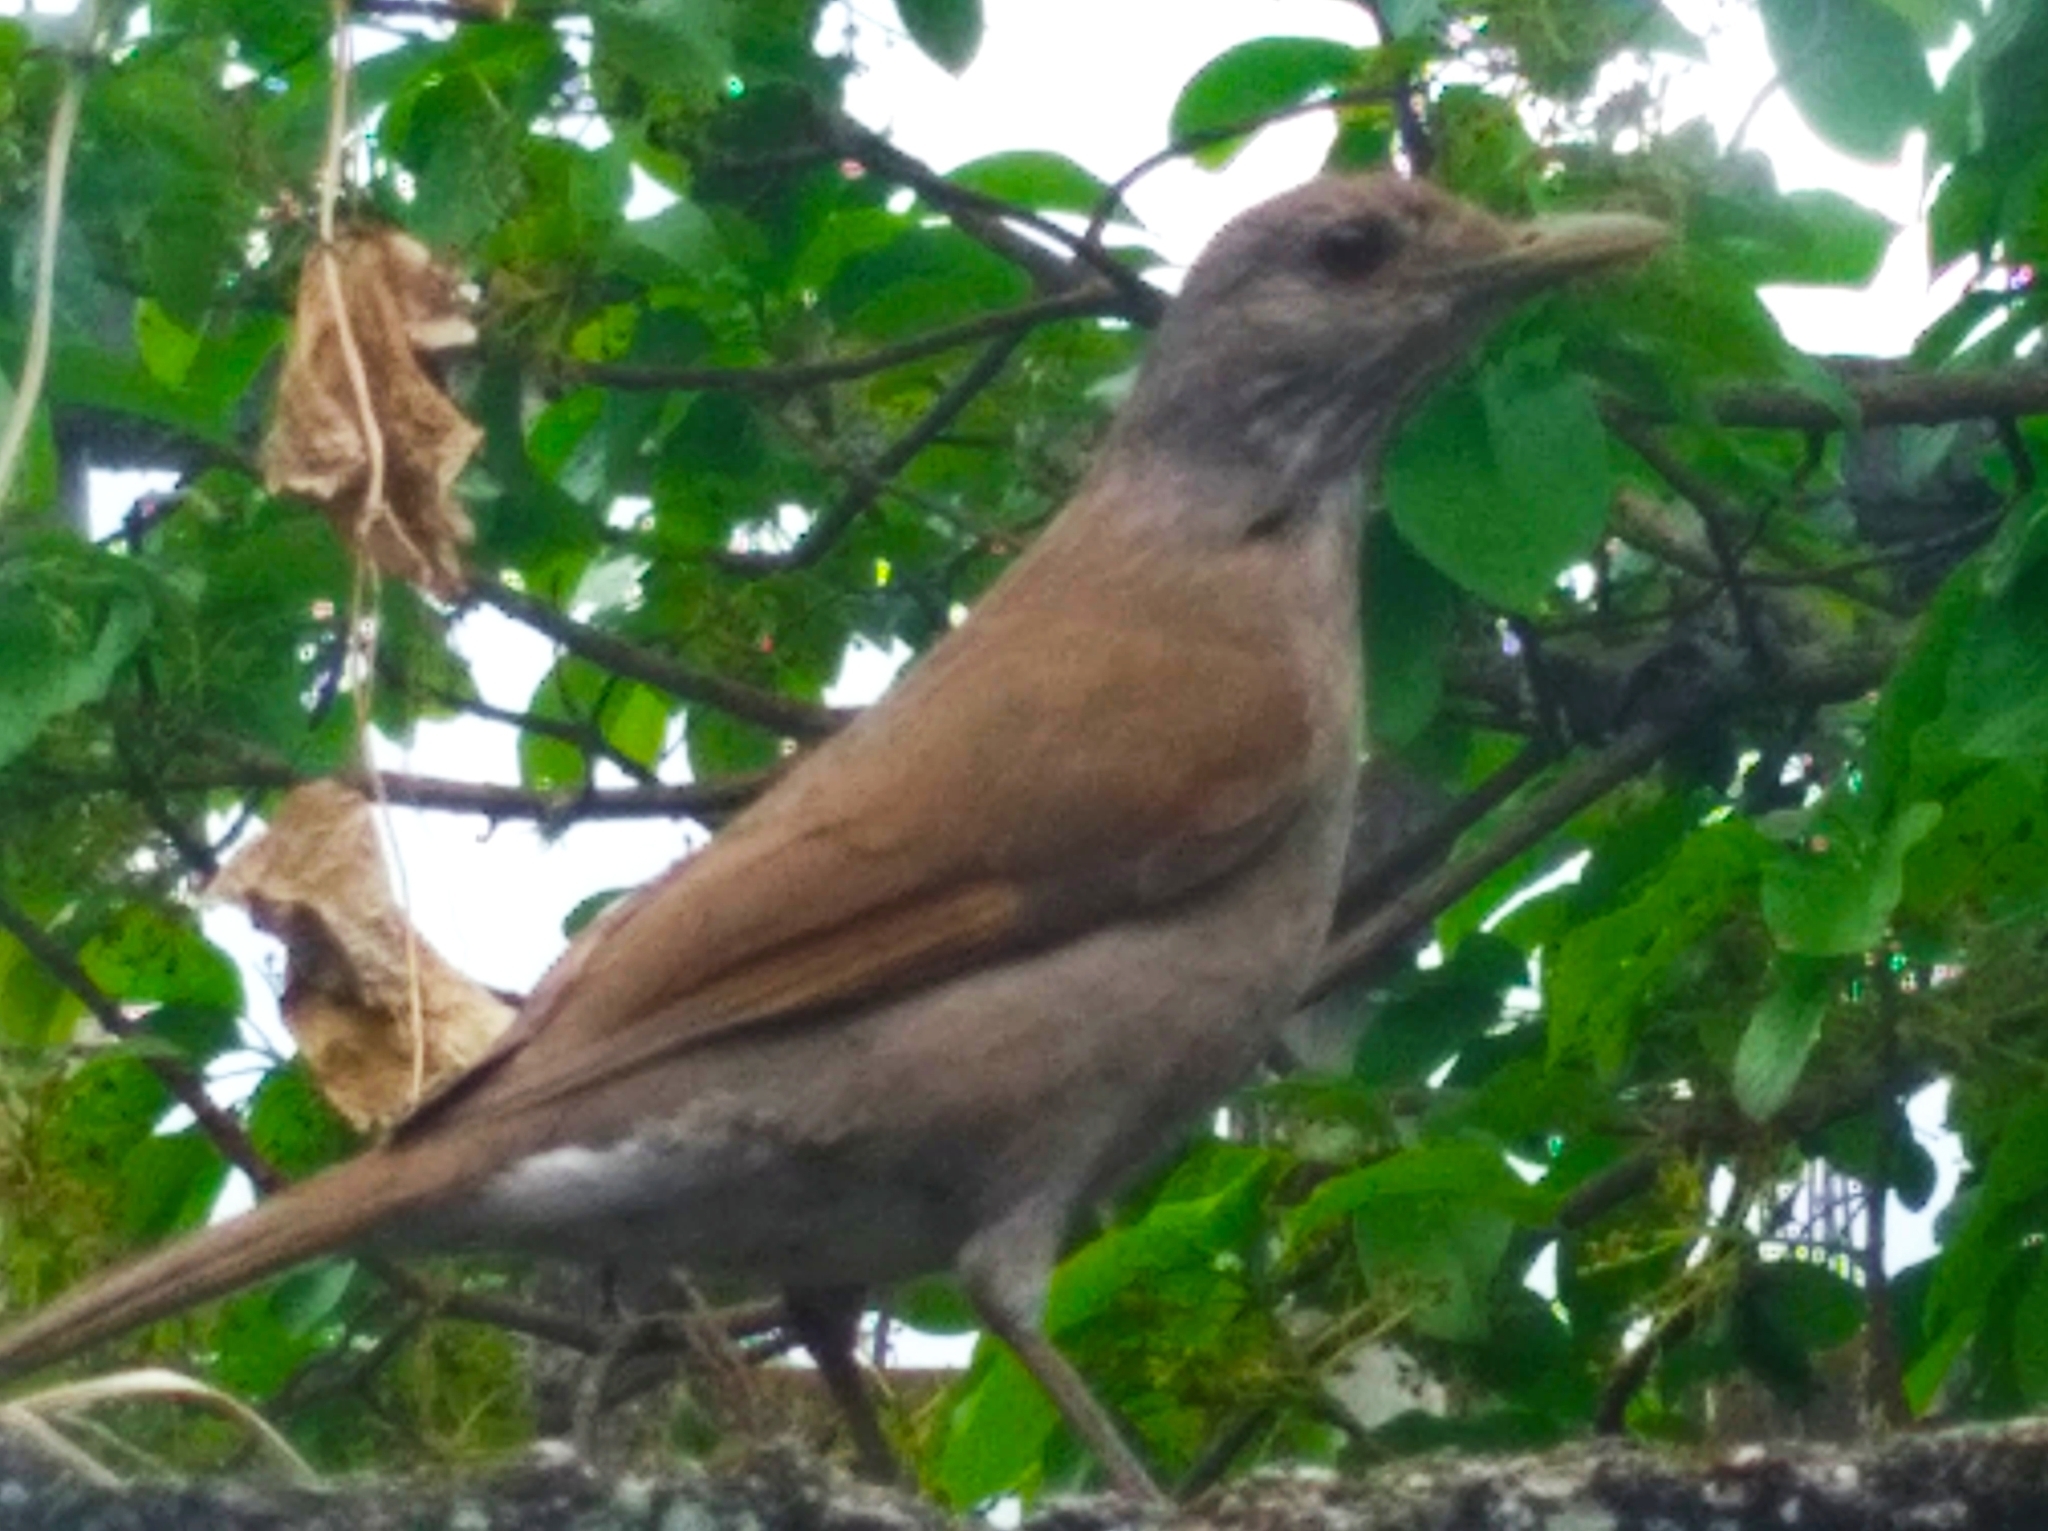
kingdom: Animalia
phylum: Chordata
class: Aves
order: Passeriformes
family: Turdidae
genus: Turdus
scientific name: Turdus leucomelas
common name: Pale-breasted thrush
